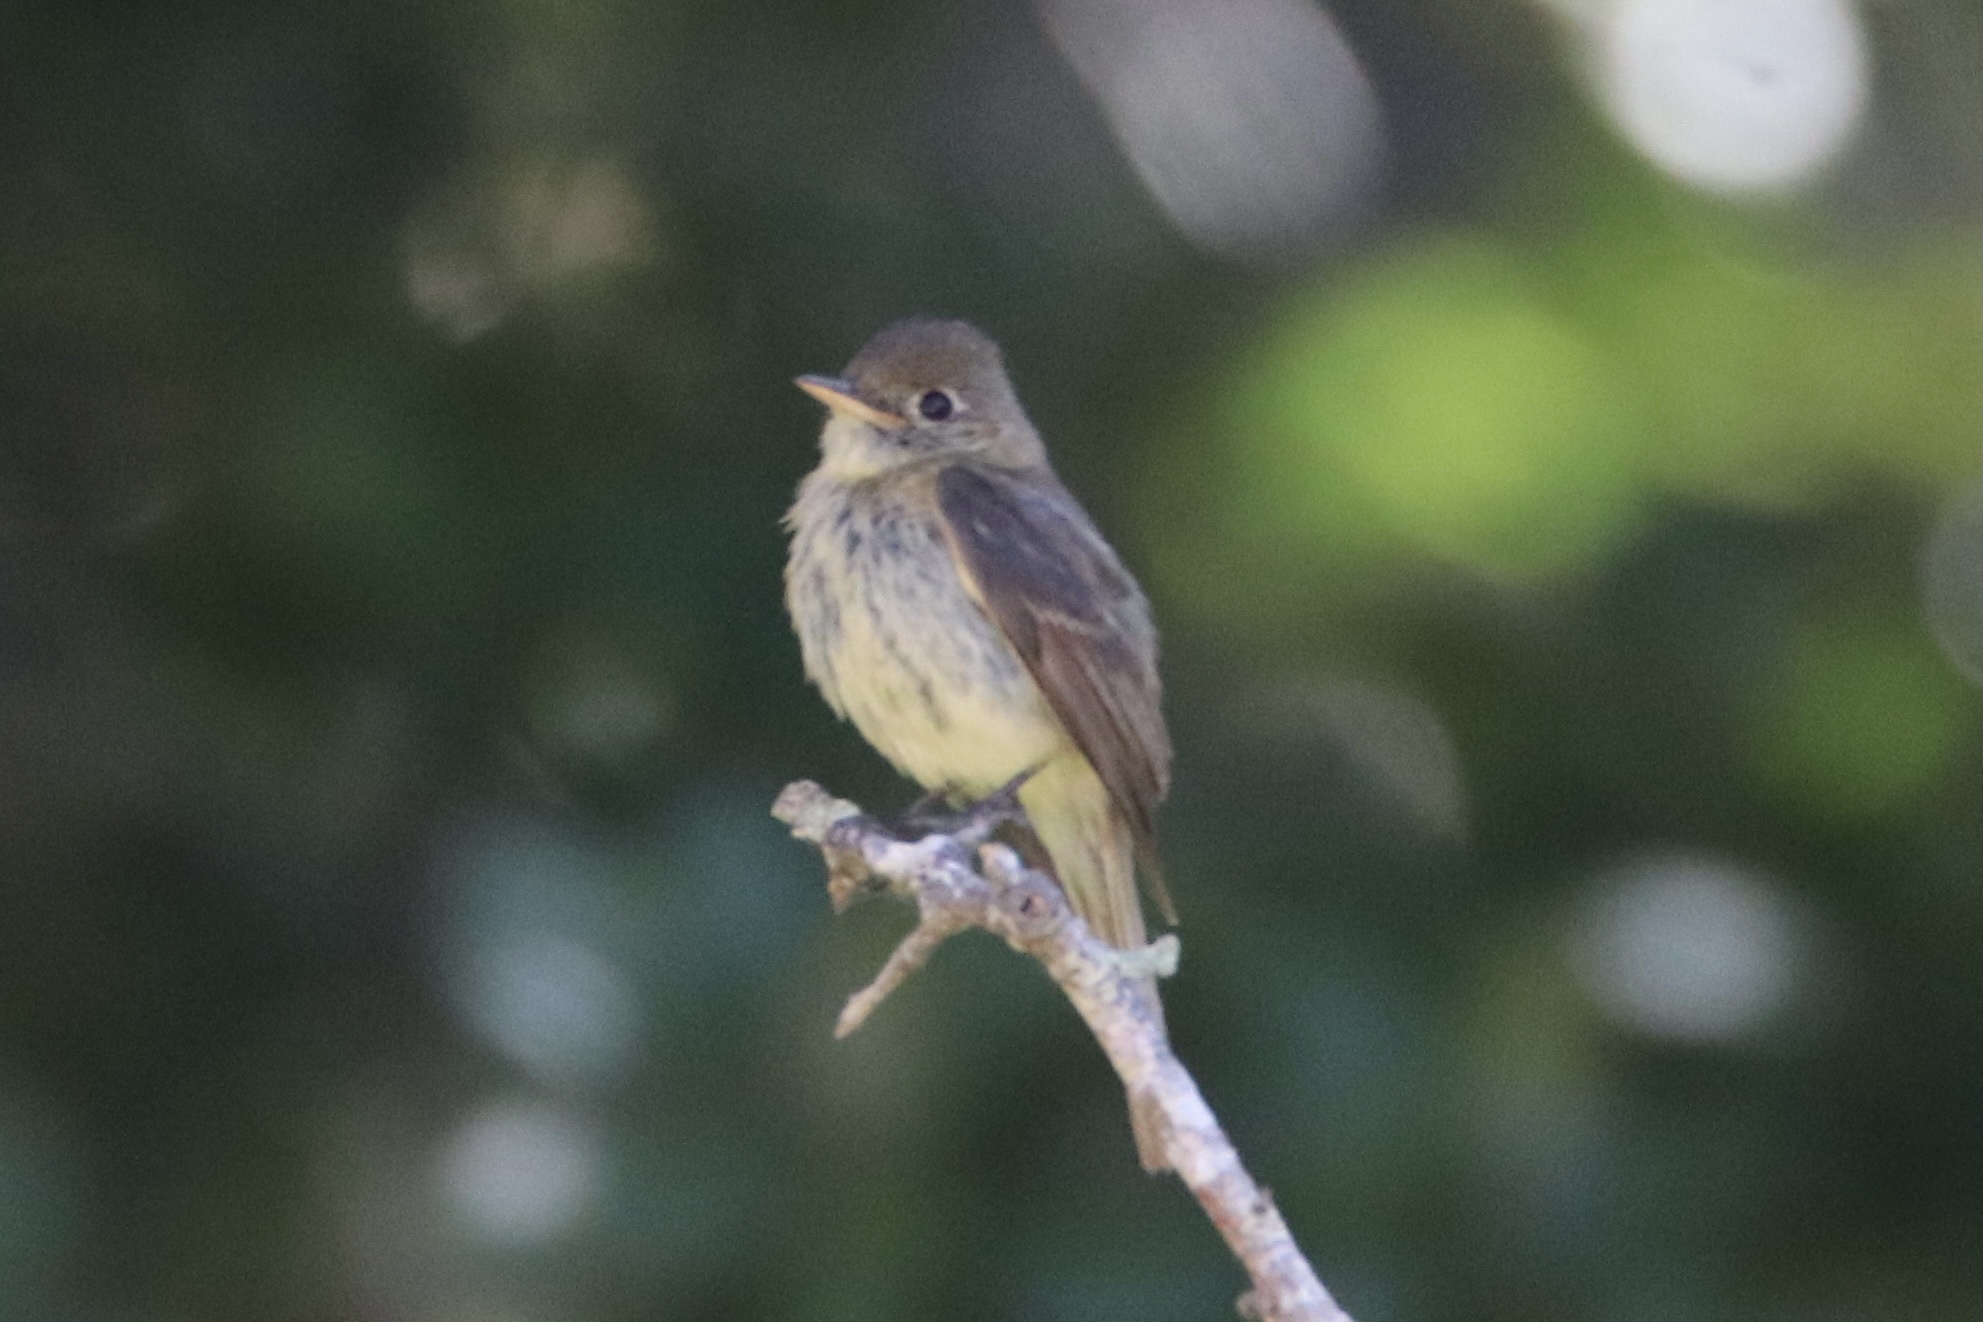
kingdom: Animalia
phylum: Chordata
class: Aves
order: Passeriformes
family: Tyrannidae
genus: Empidonax
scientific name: Empidonax difficilis
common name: Pacific-slope flycatcher
